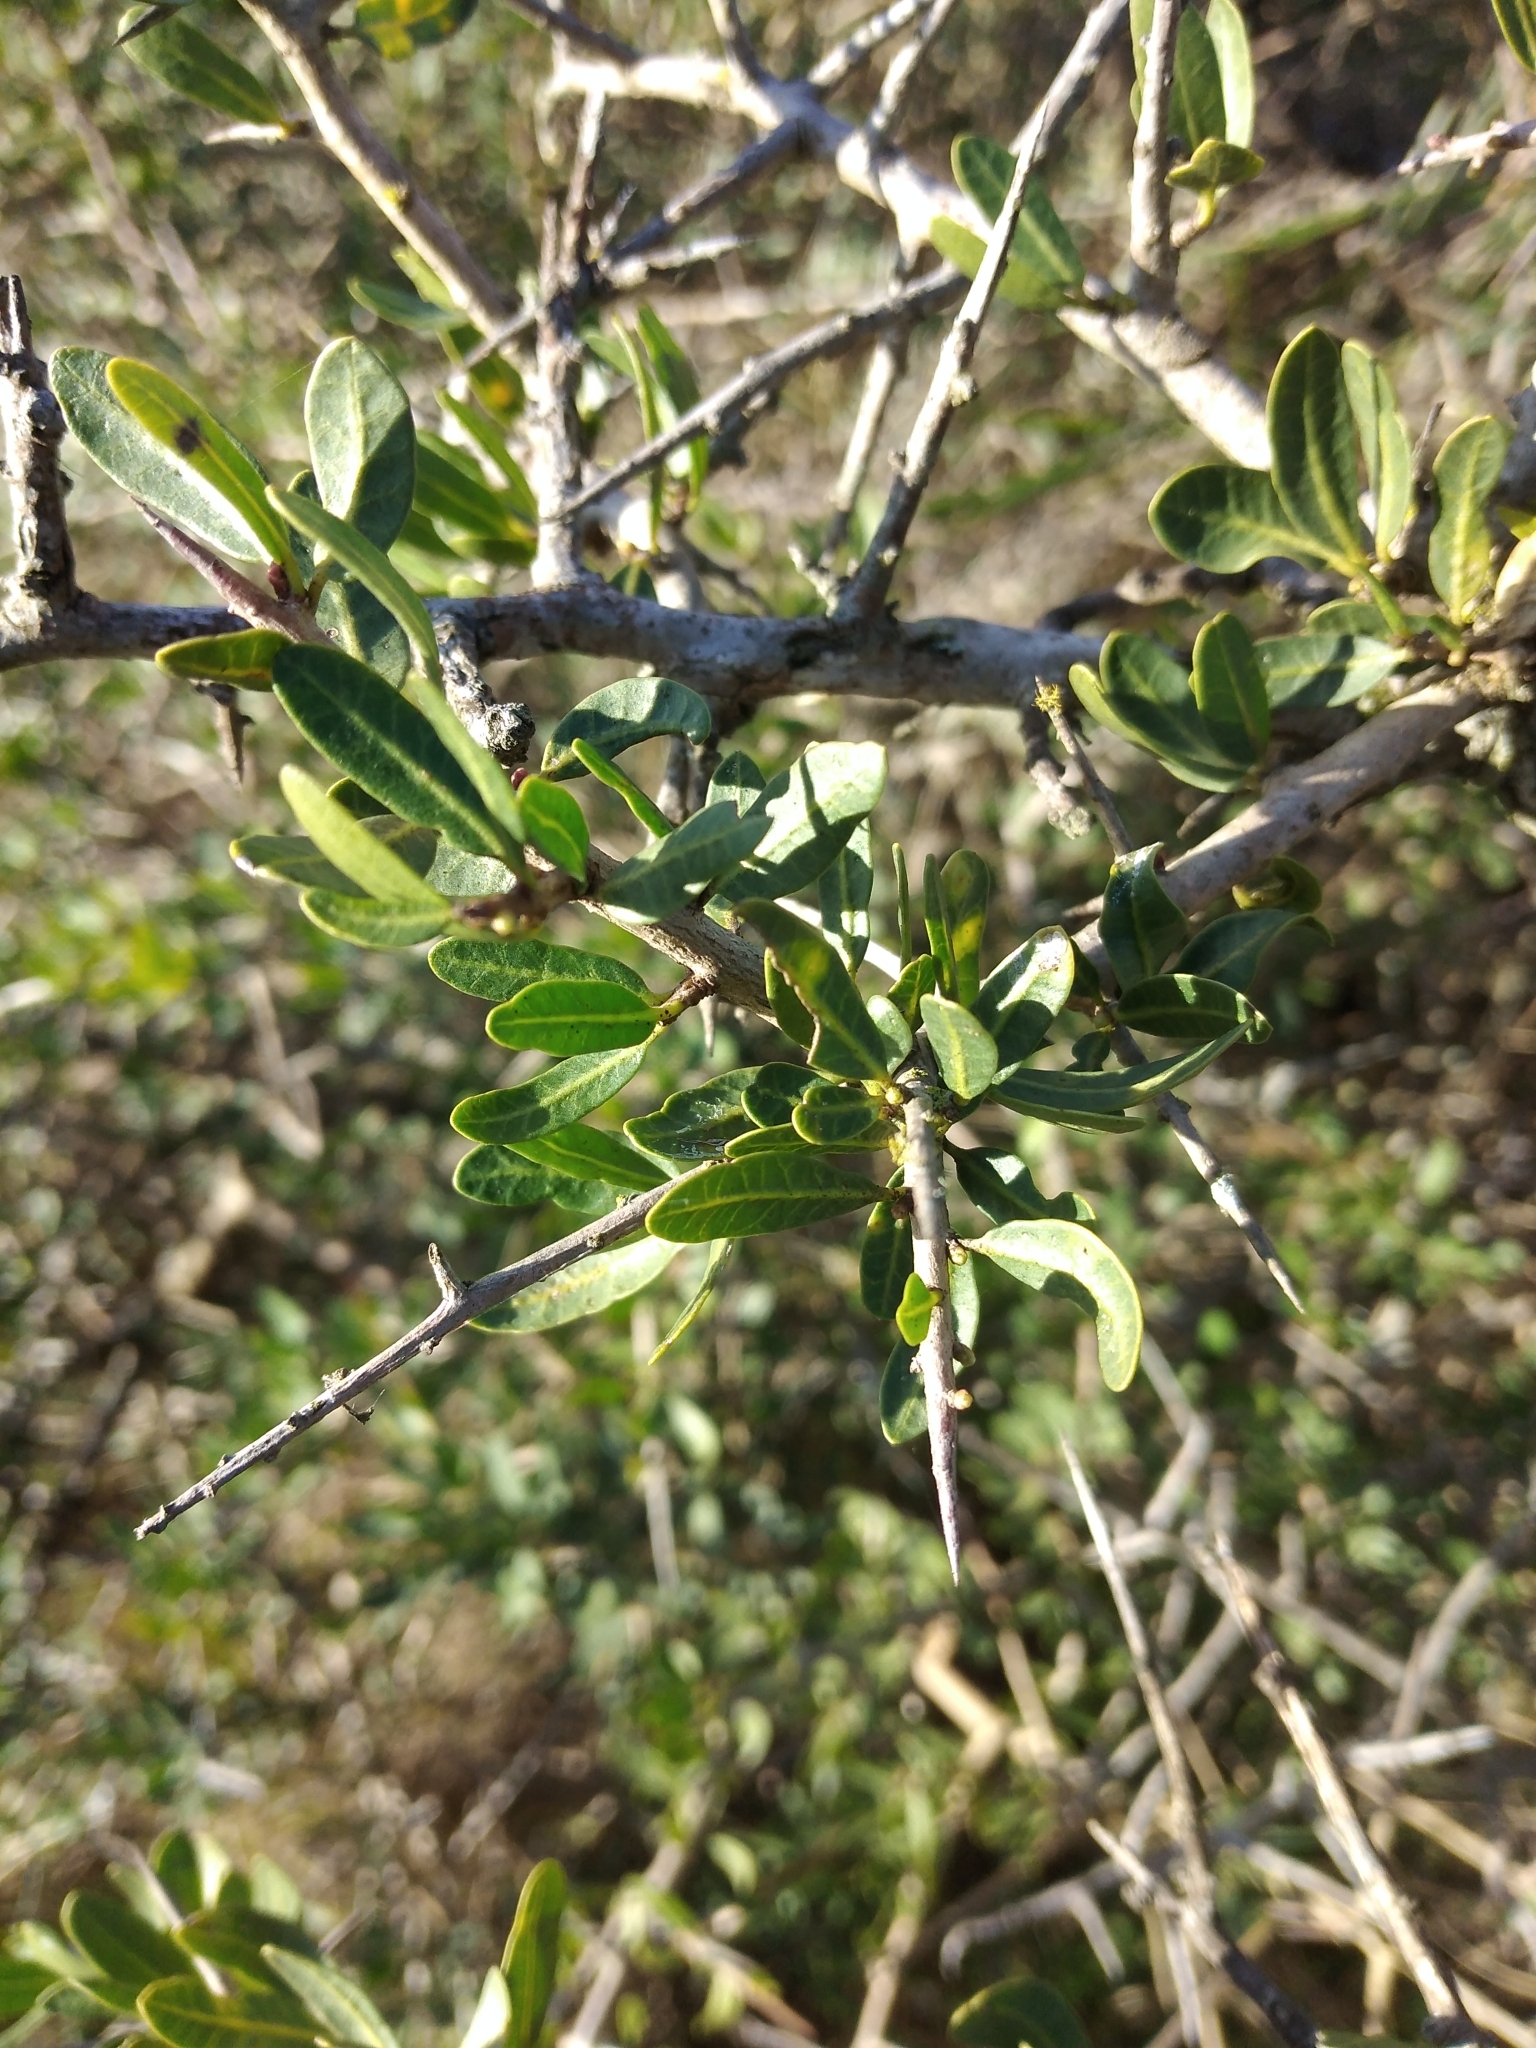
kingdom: Plantae
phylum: Tracheophyta
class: Magnoliopsida
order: Sapindales
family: Anacardiaceae
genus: Schinus
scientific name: Schinus longifolia
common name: Longleaf peppertree
